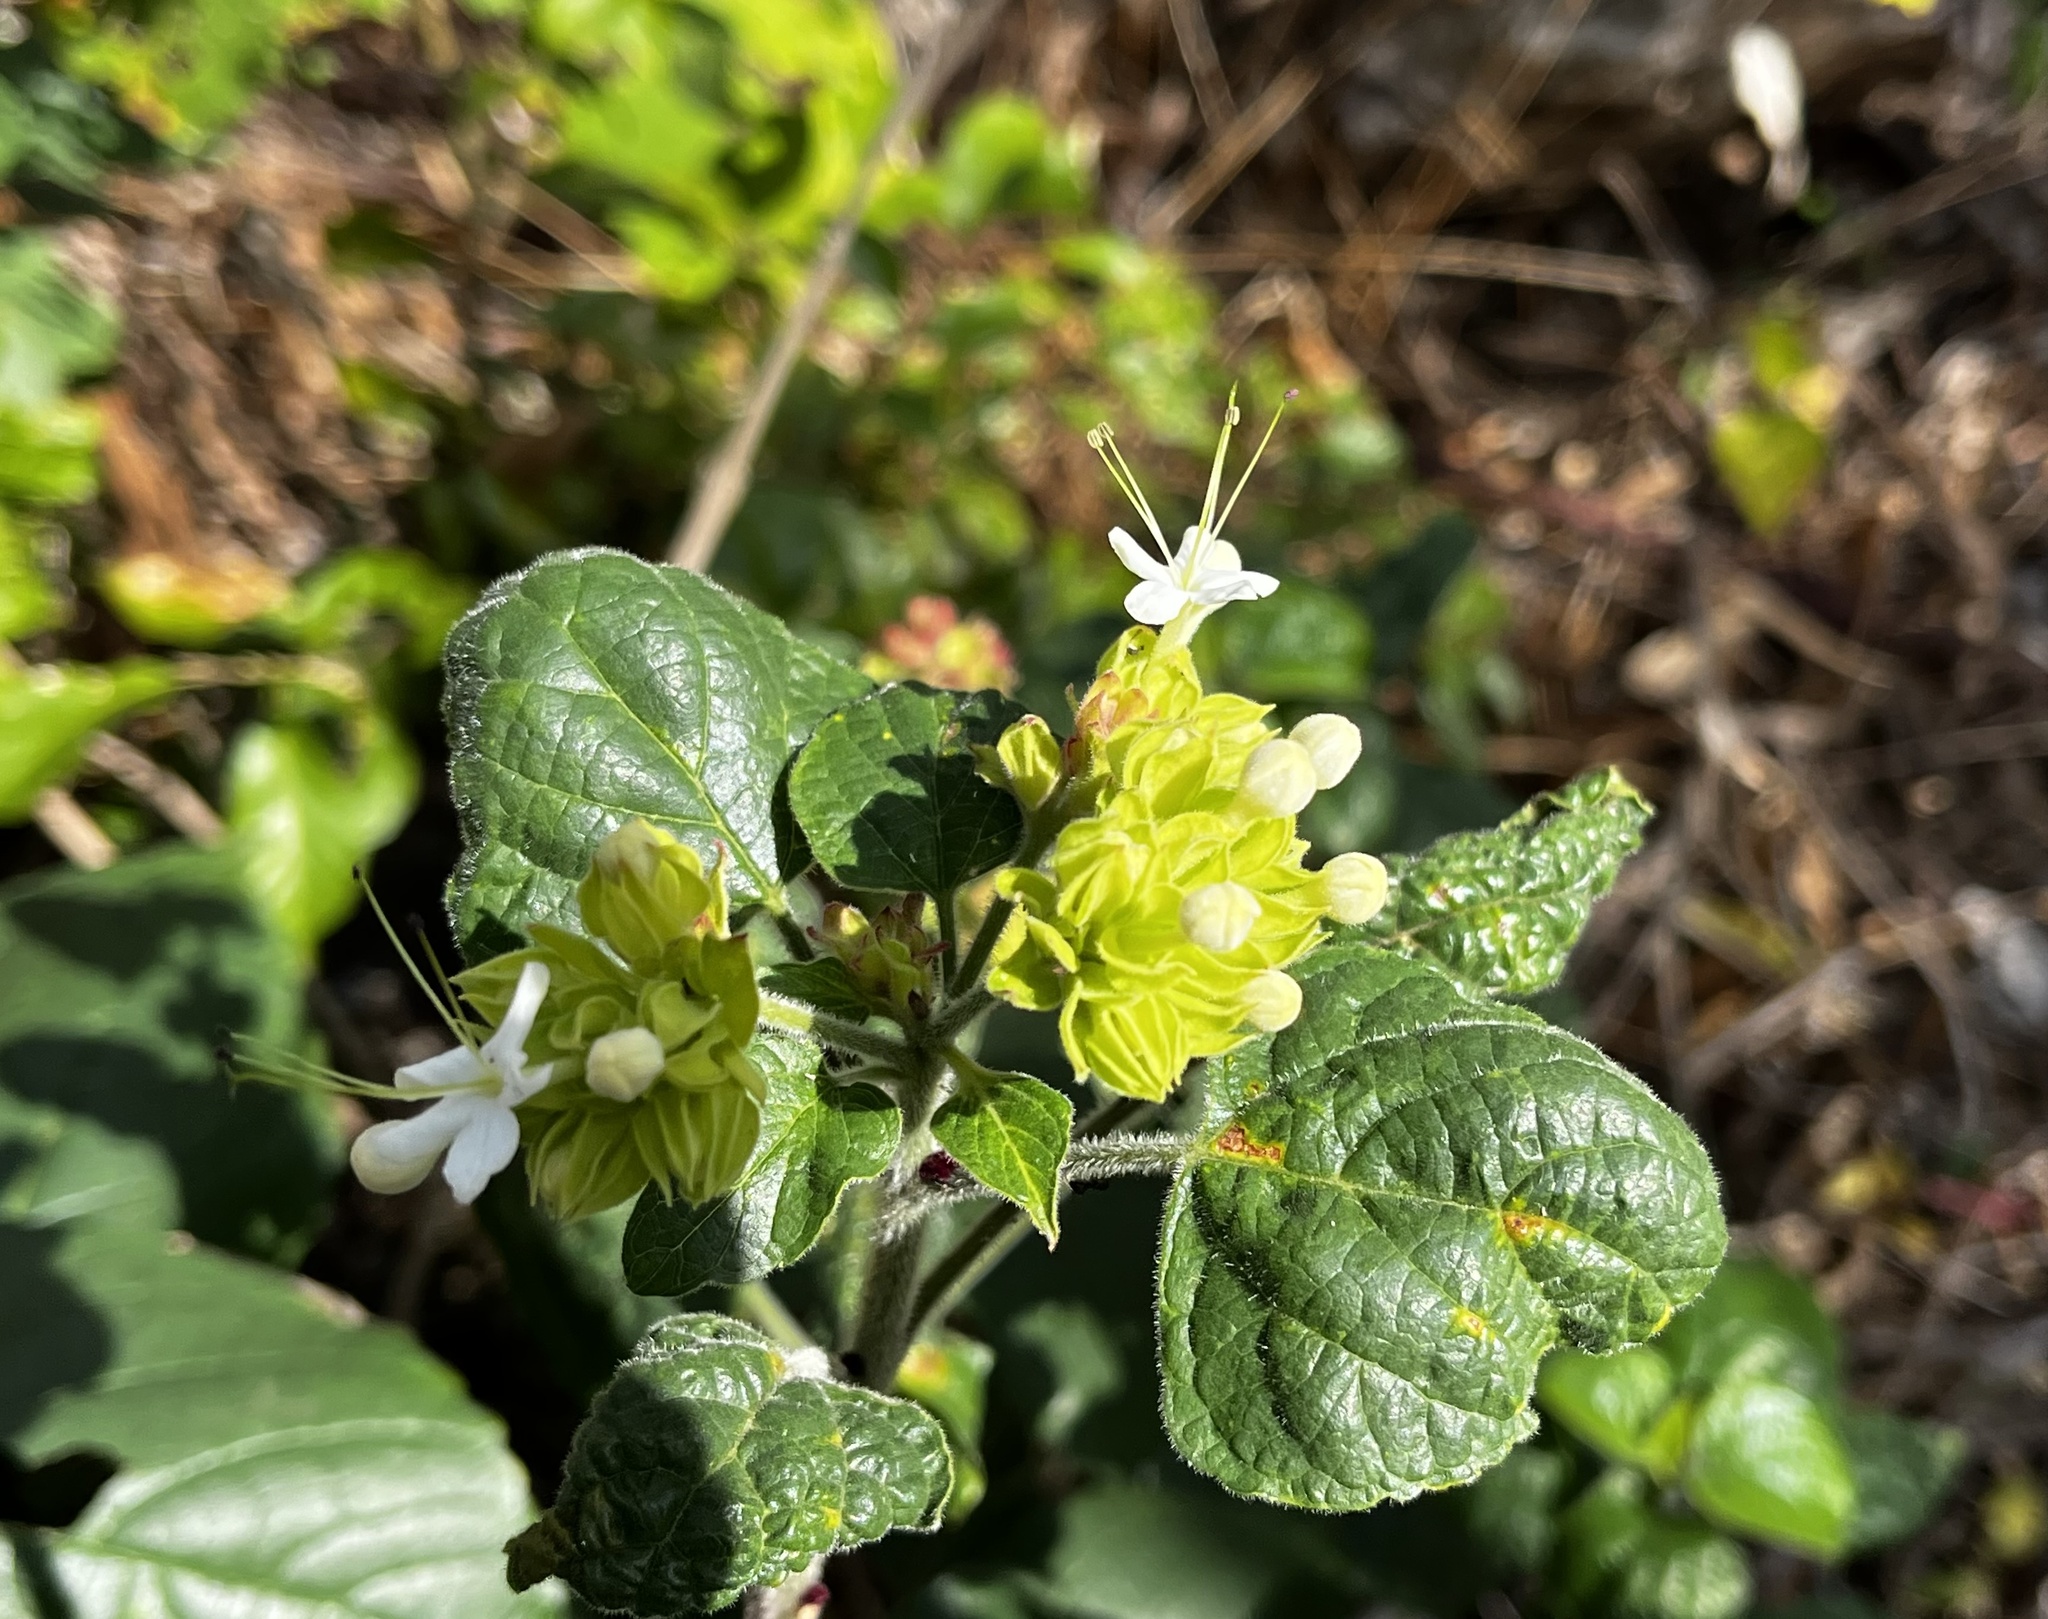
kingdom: Plantae
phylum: Tracheophyta
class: Magnoliopsida
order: Lamiales
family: Lamiaceae
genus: Clerodendrum
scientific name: Clerodendrum canescens
